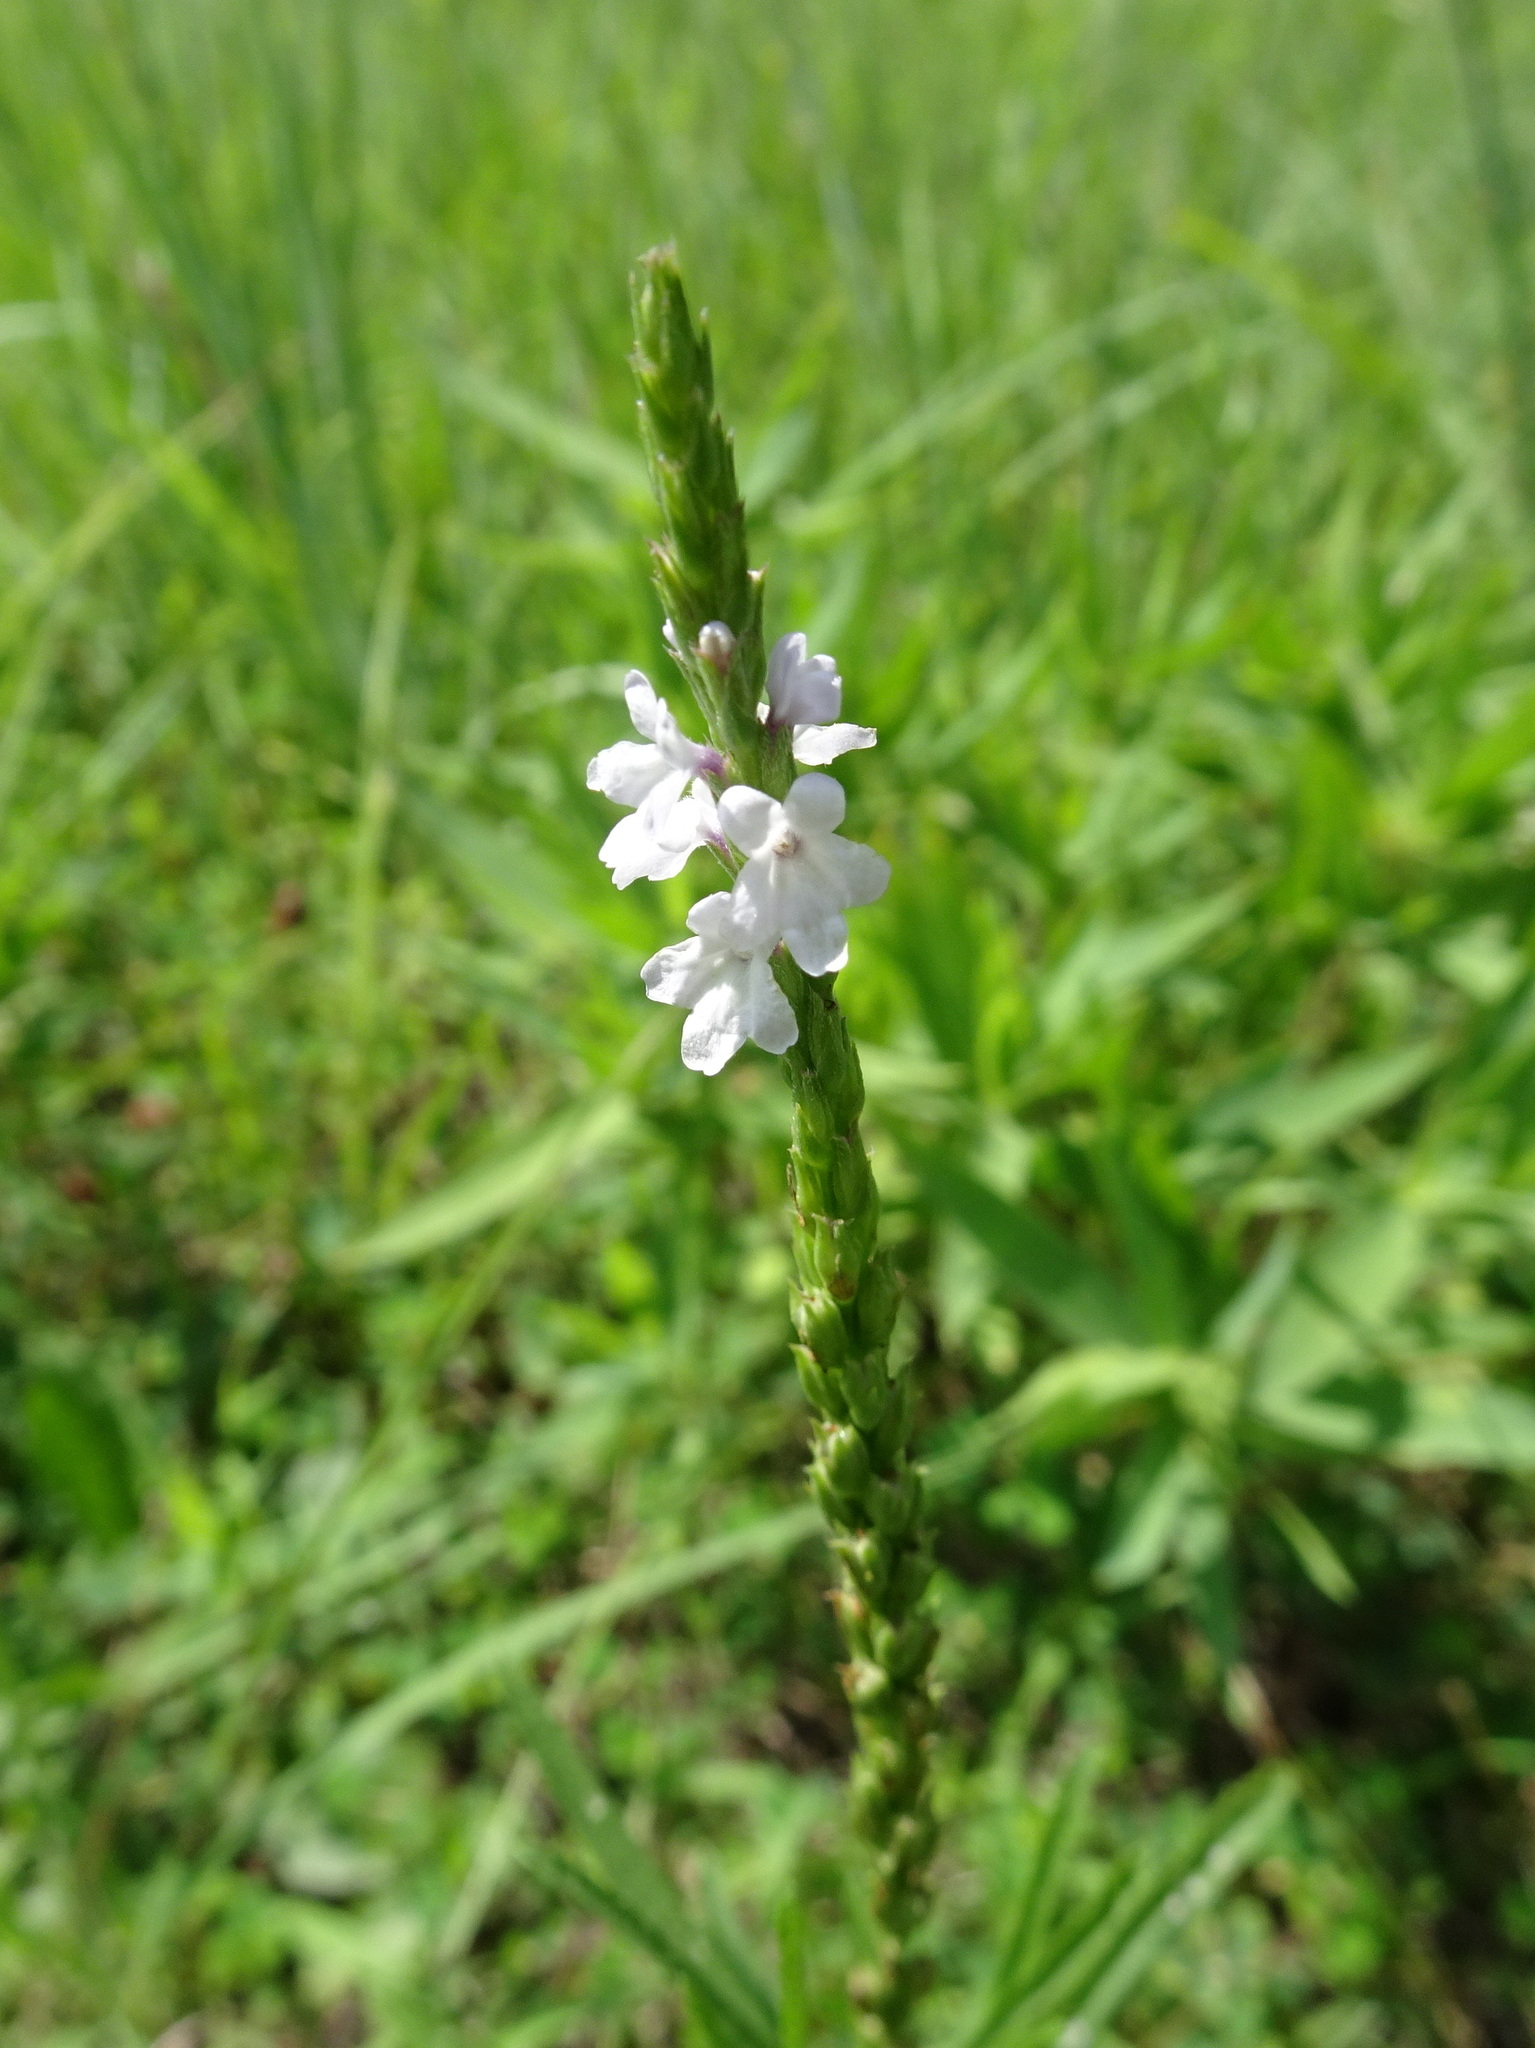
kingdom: Plantae
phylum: Tracheophyta
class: Magnoliopsida
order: Lamiales
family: Verbenaceae
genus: Verbena
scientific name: Verbena simplex
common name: Narrow-leaf vervain
